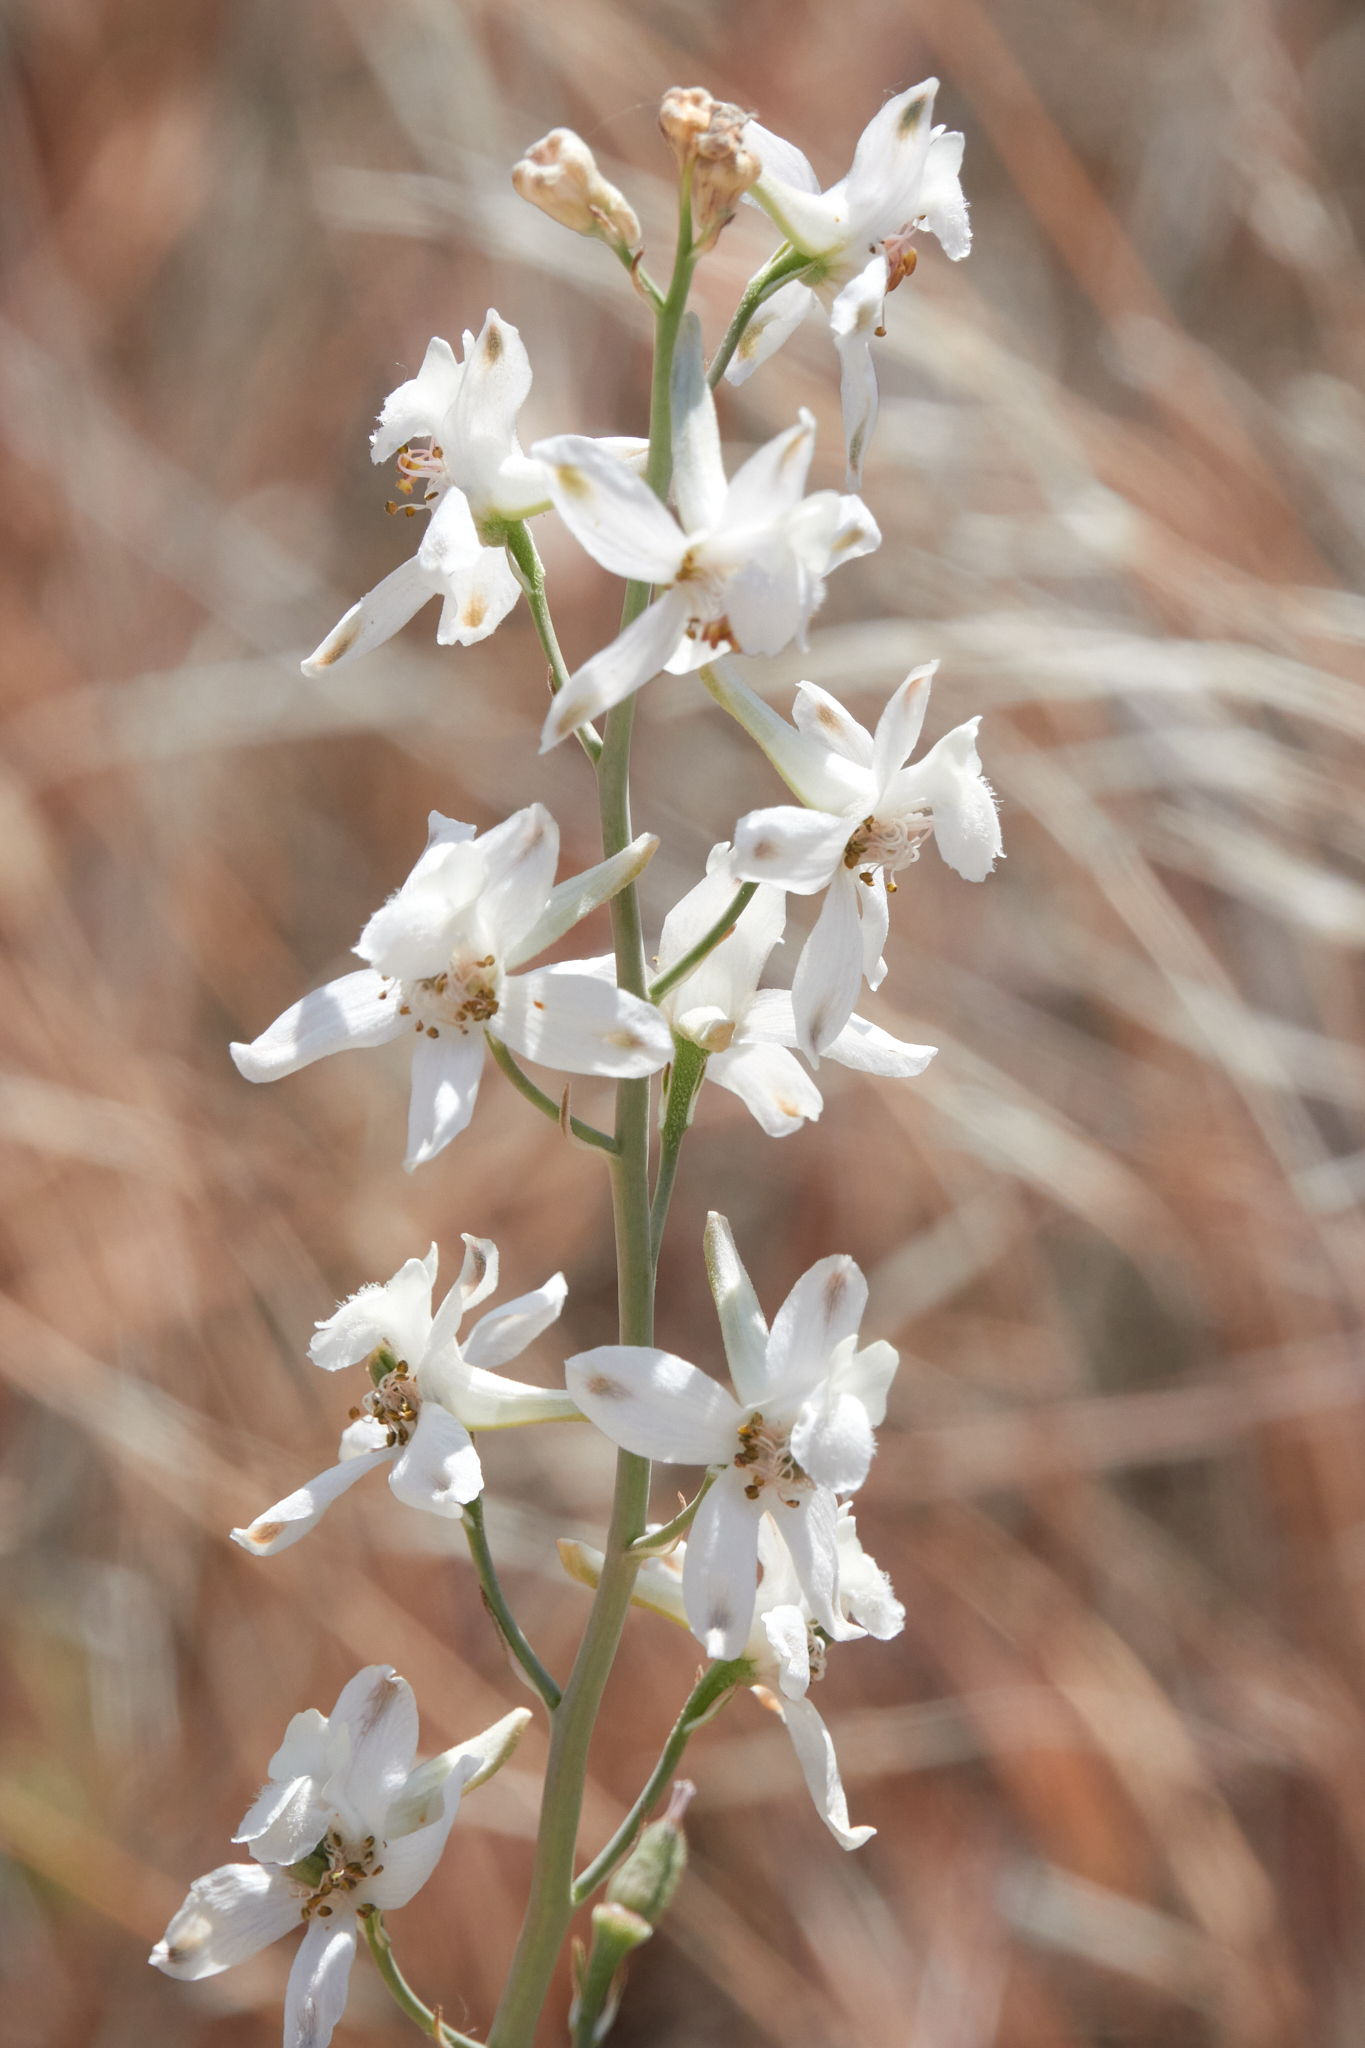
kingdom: Plantae
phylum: Tracheophyta
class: Magnoliopsida
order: Ranunculales
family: Ranunculaceae
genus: Delphinium
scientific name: Delphinium gypsophilum
